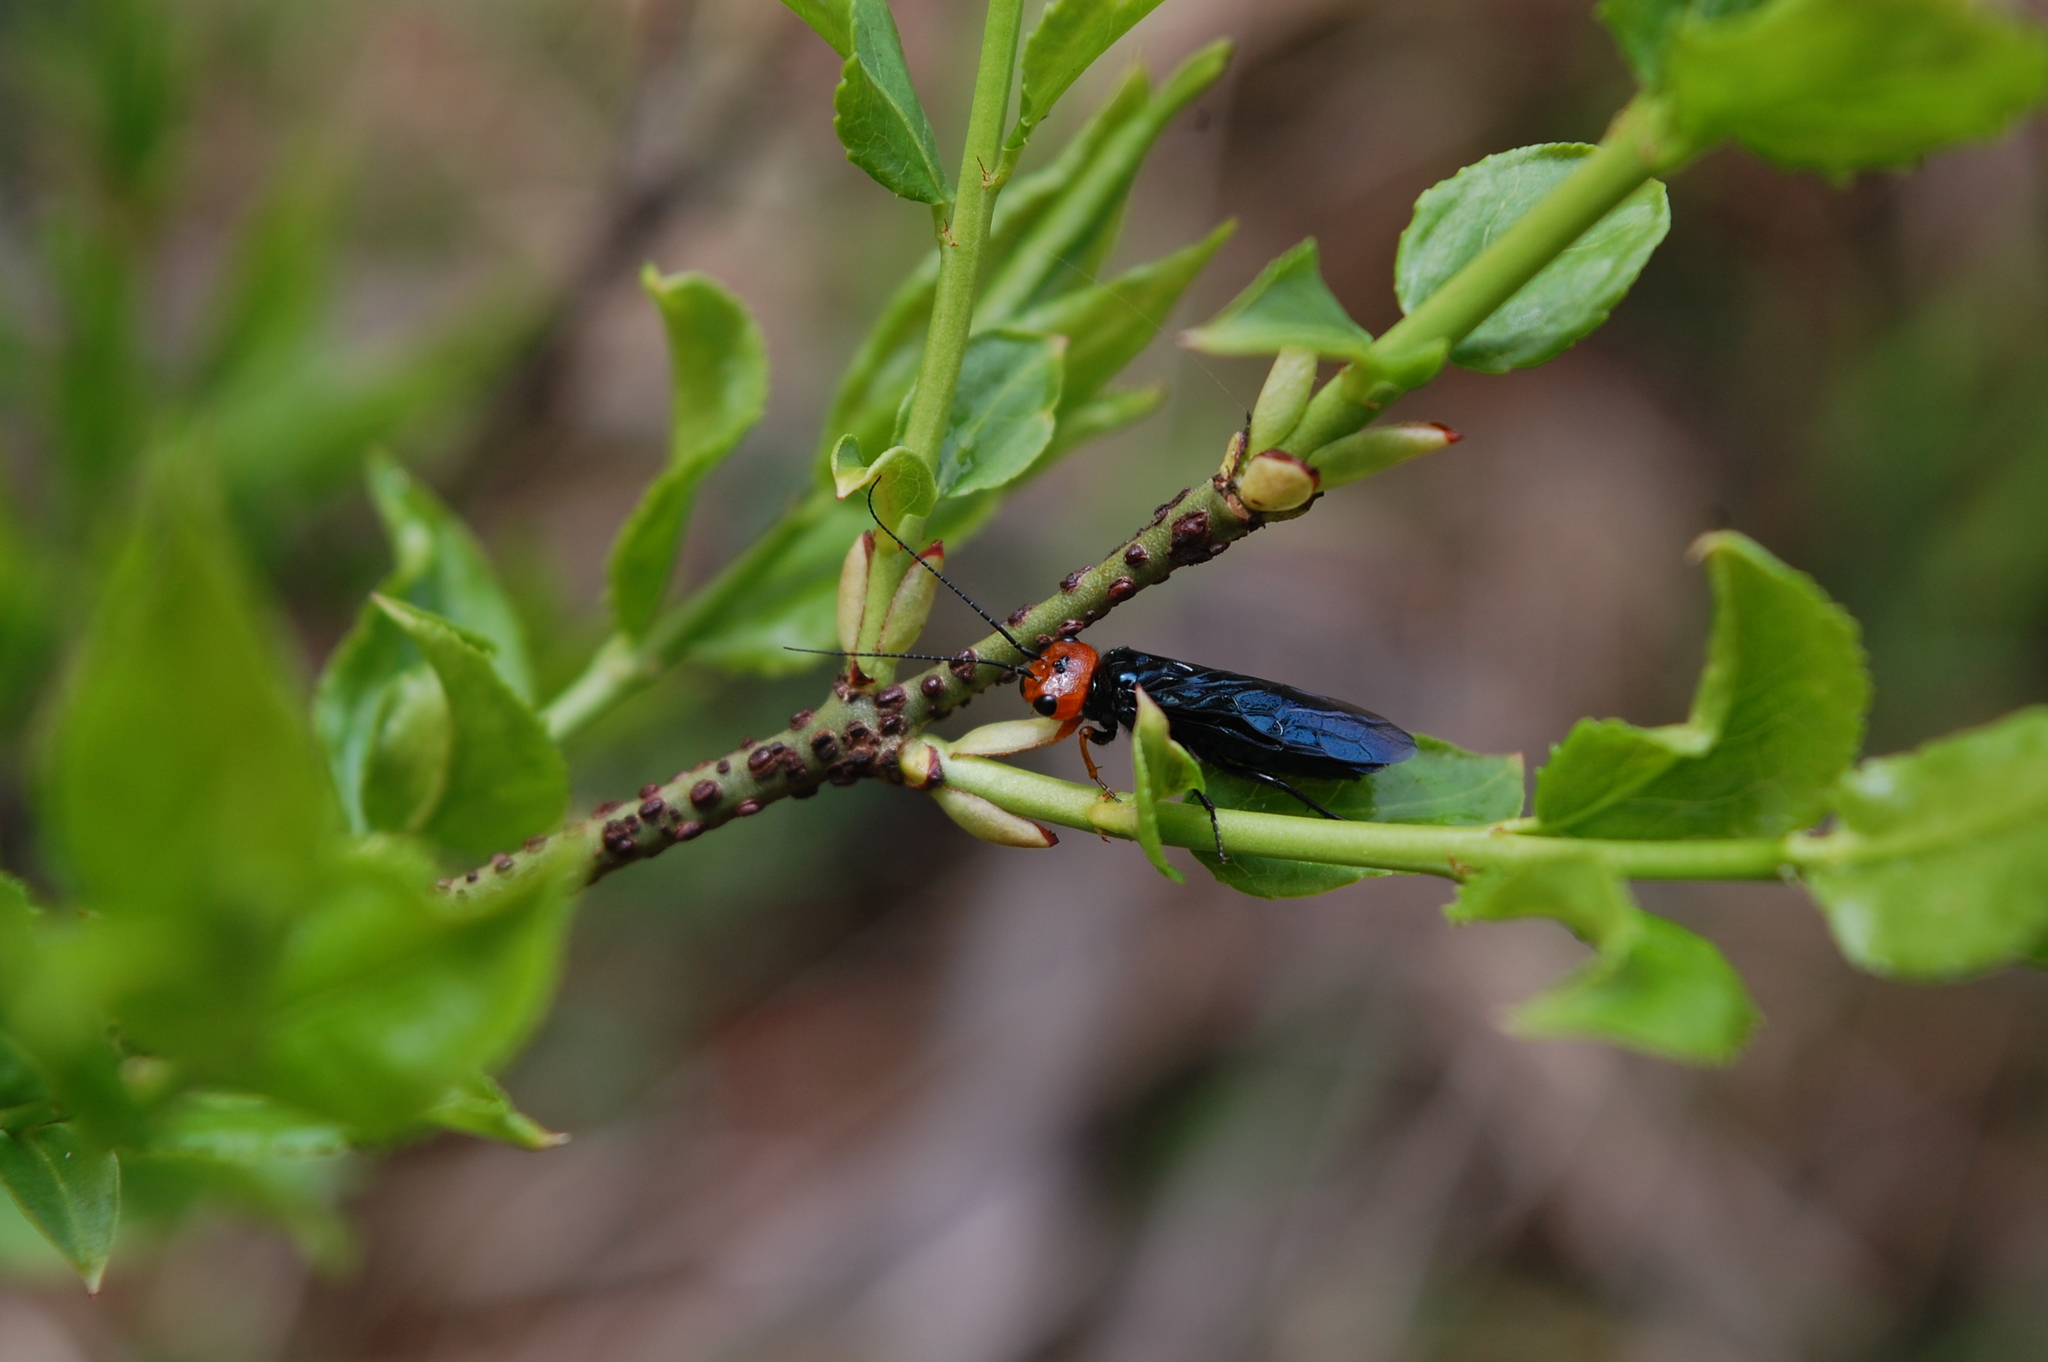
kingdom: Animalia
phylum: Arthropoda
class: Insecta
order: Hymenoptera
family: Pamphiliidae
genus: Acantholyda
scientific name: Acantholyda erythrocephala
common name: Pine false webworm
